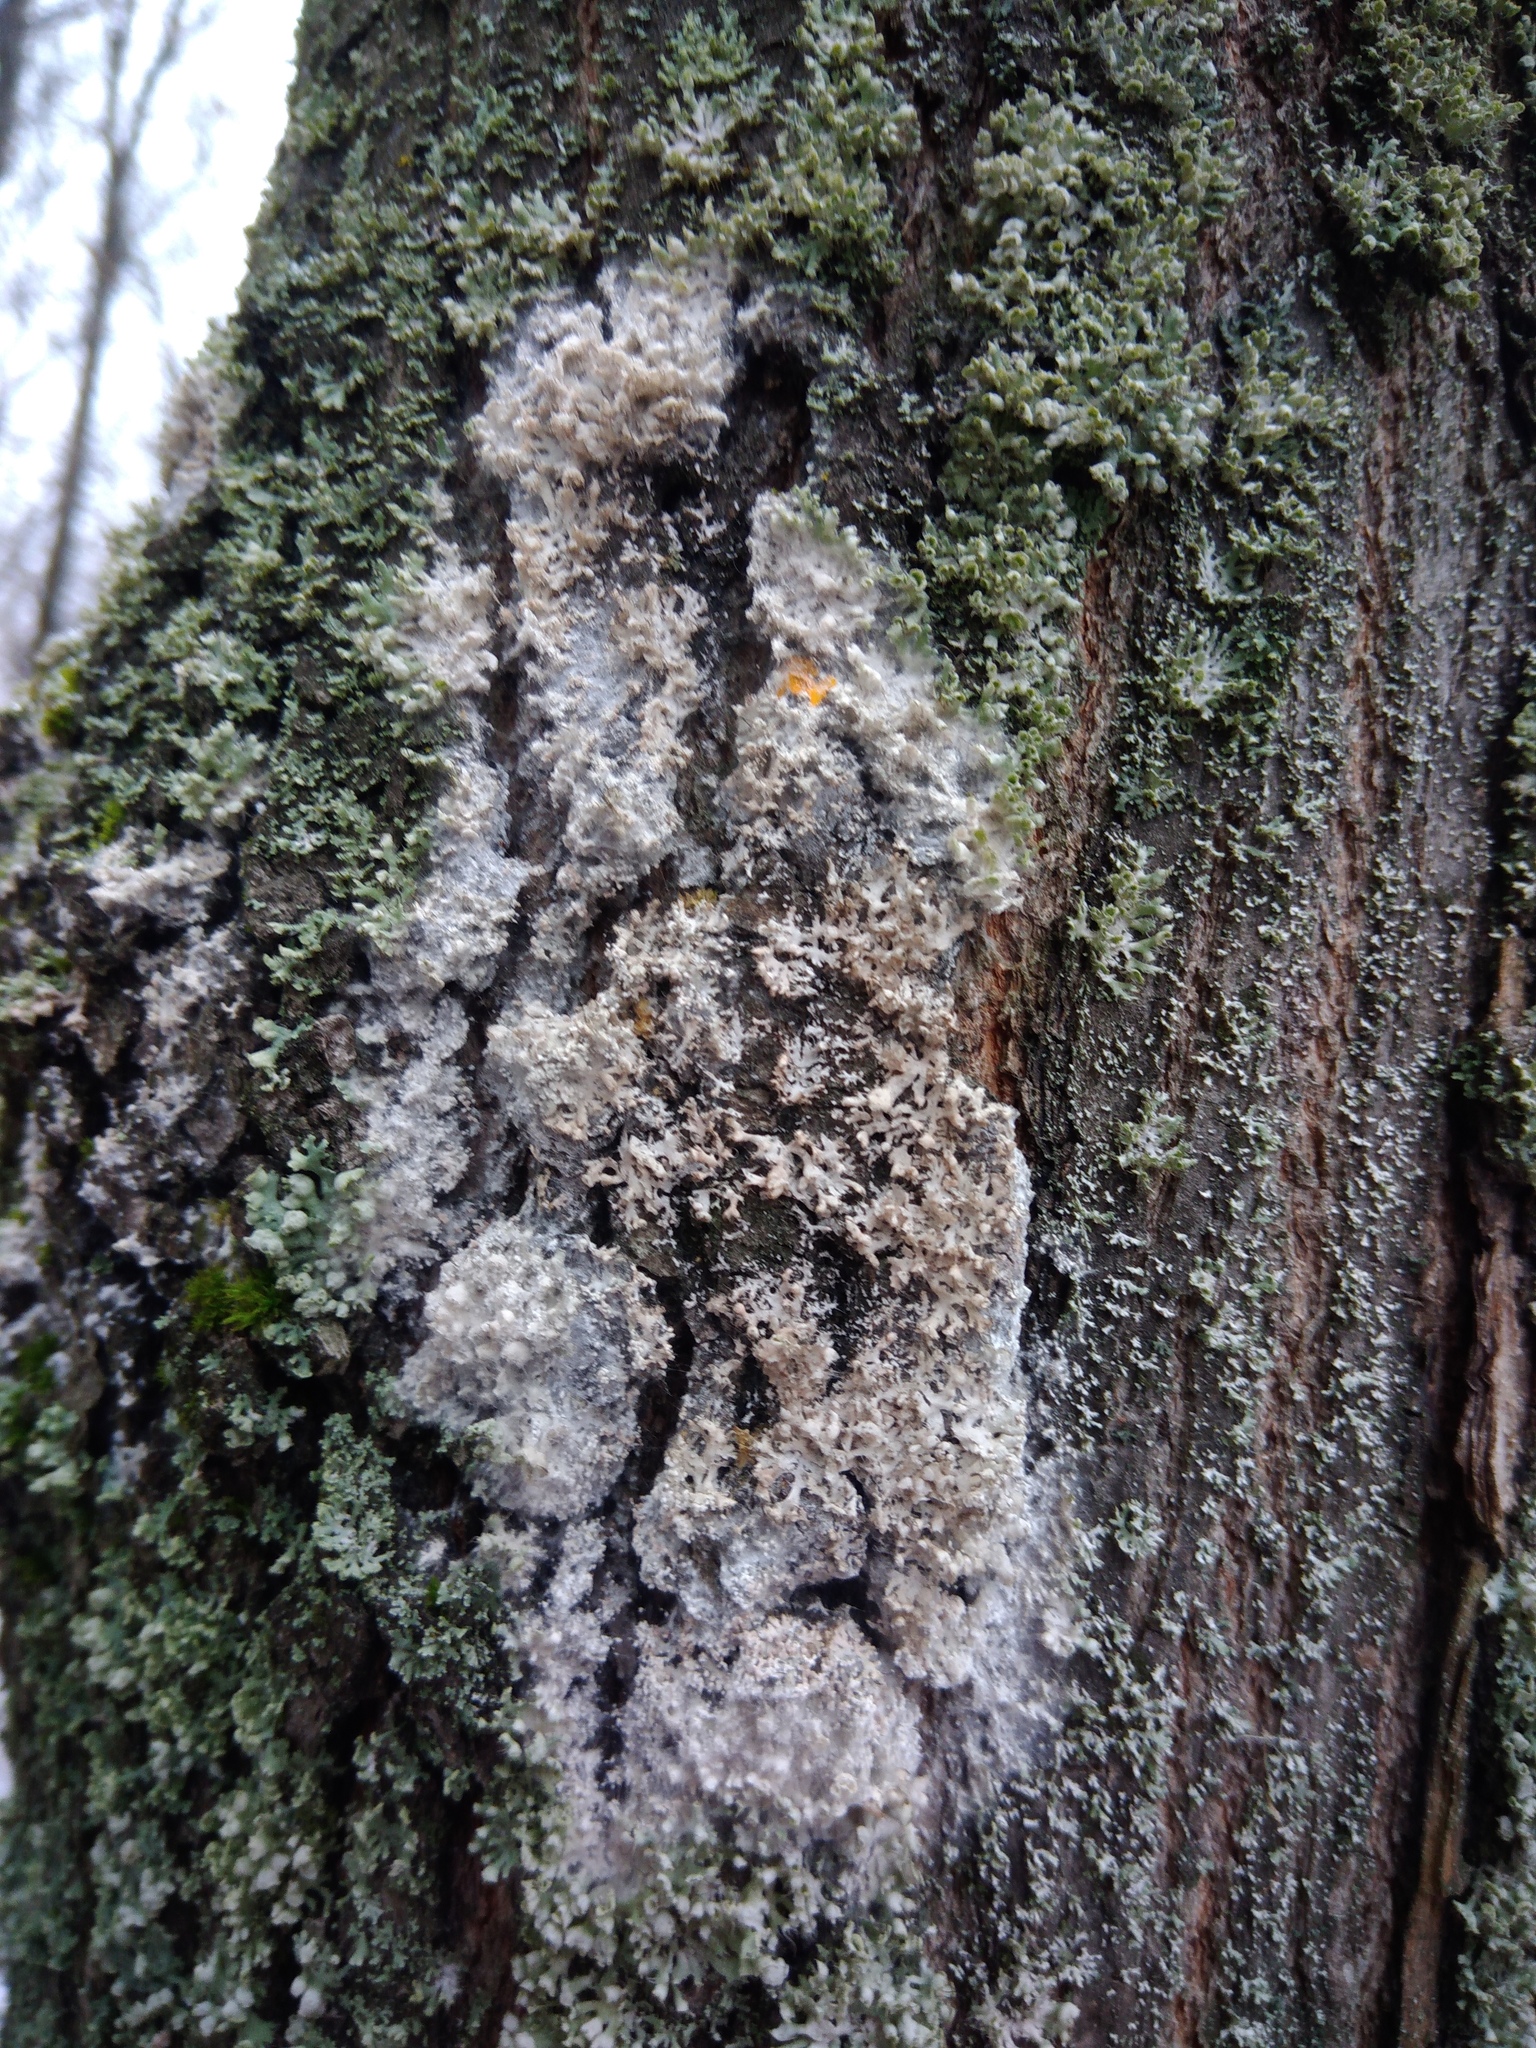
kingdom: Fungi
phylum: Basidiomycota
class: Agaricomycetes
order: Atheliales
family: Atheliaceae
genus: Athelia
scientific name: Athelia arachnoidea
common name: Candelabra duster
